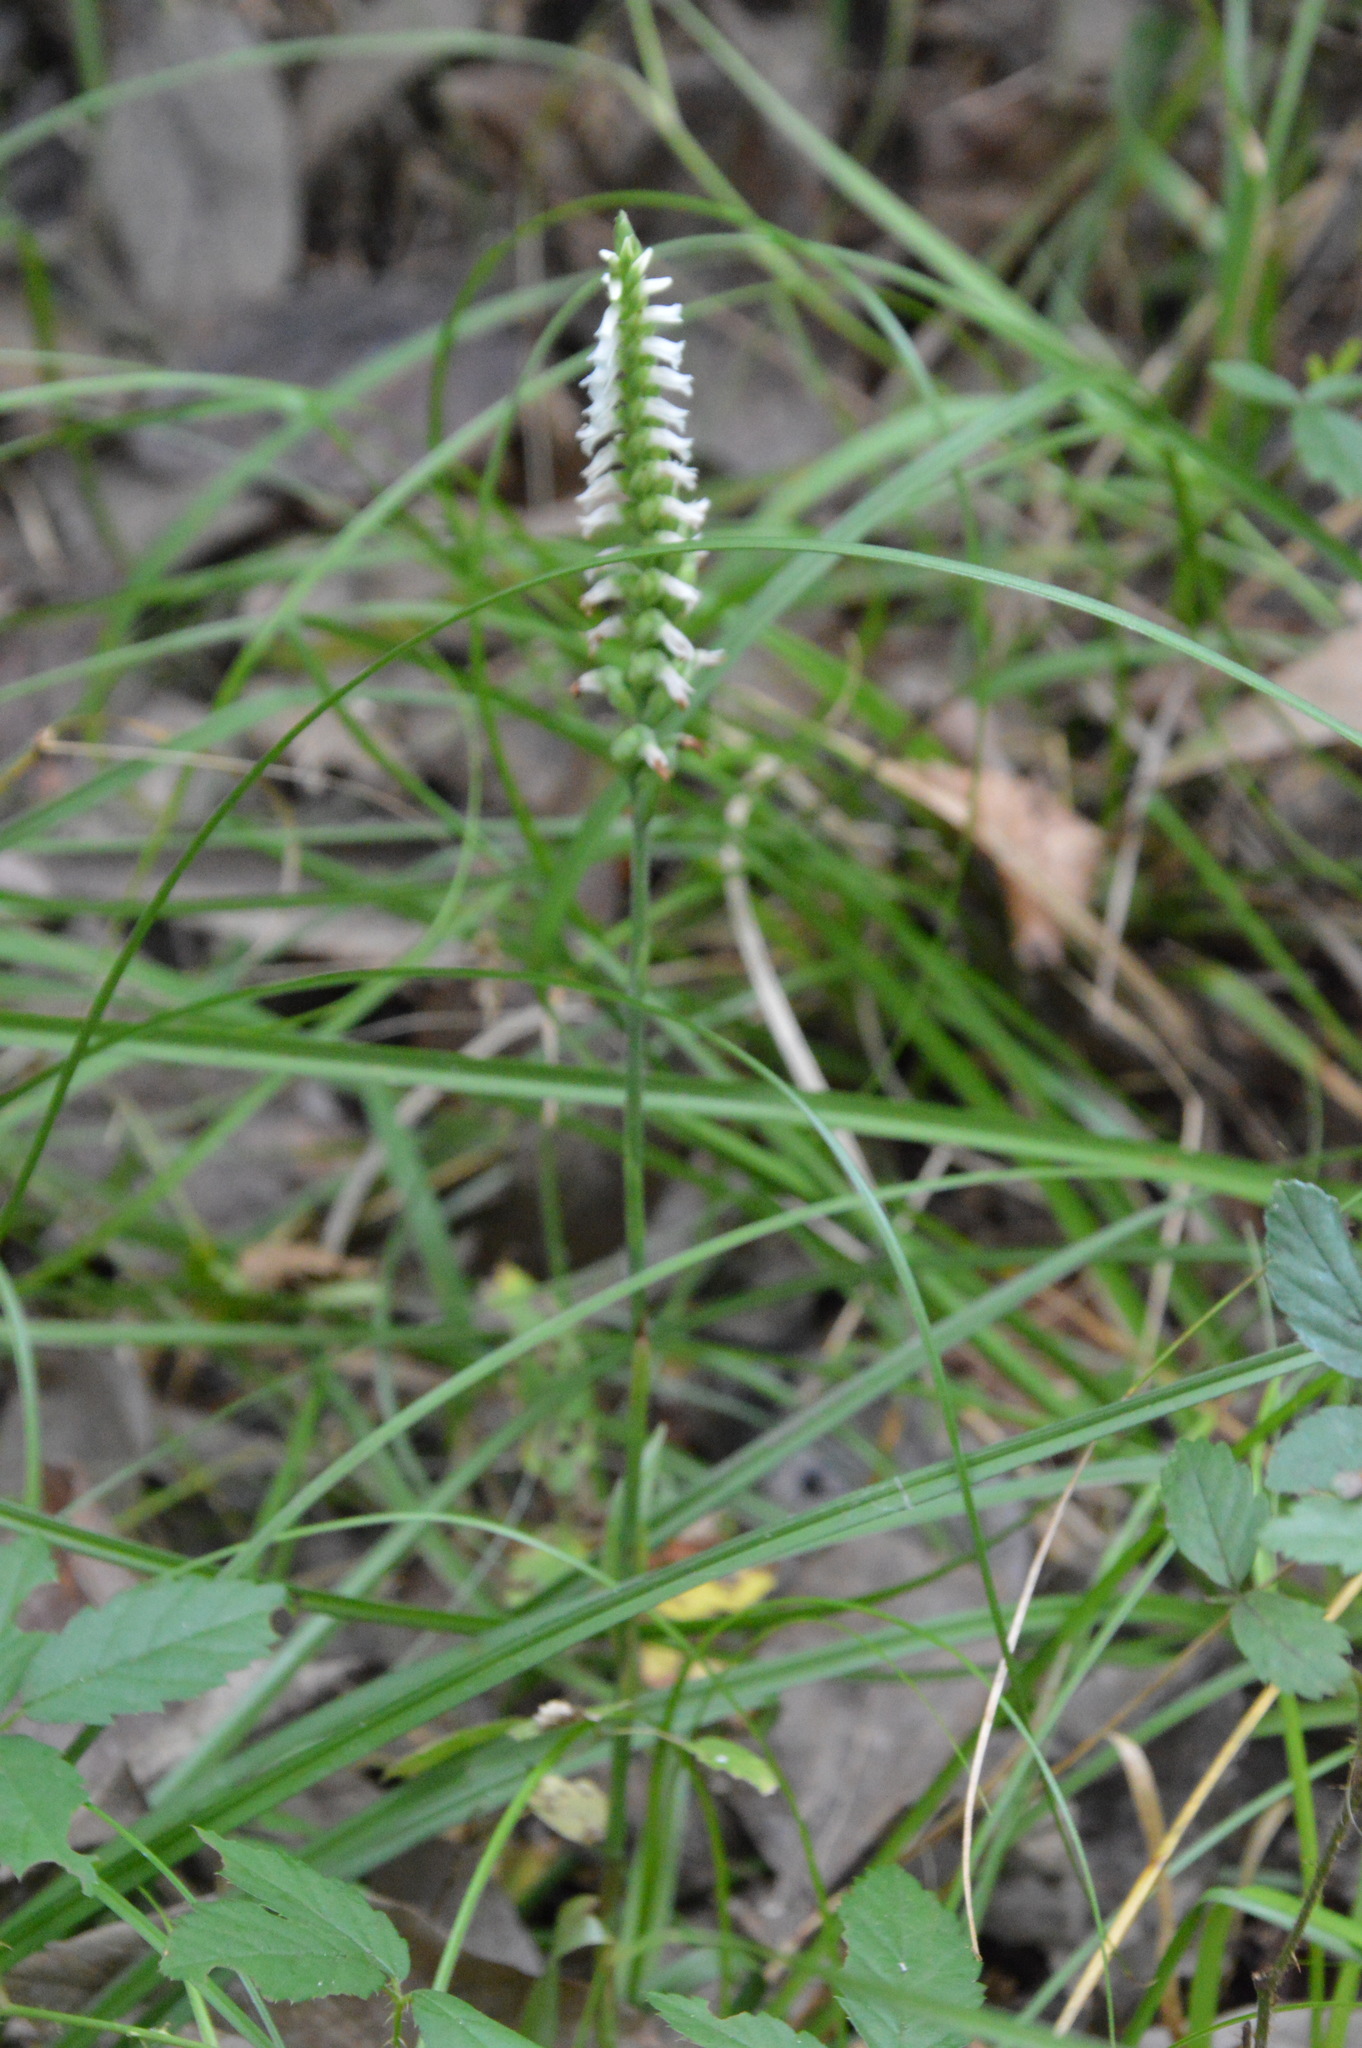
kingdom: Plantae
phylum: Tracheophyta
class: Liliopsida
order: Asparagales
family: Orchidaceae
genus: Spiranthes
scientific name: Spiranthes ovalis
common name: October ladies'-tresses
